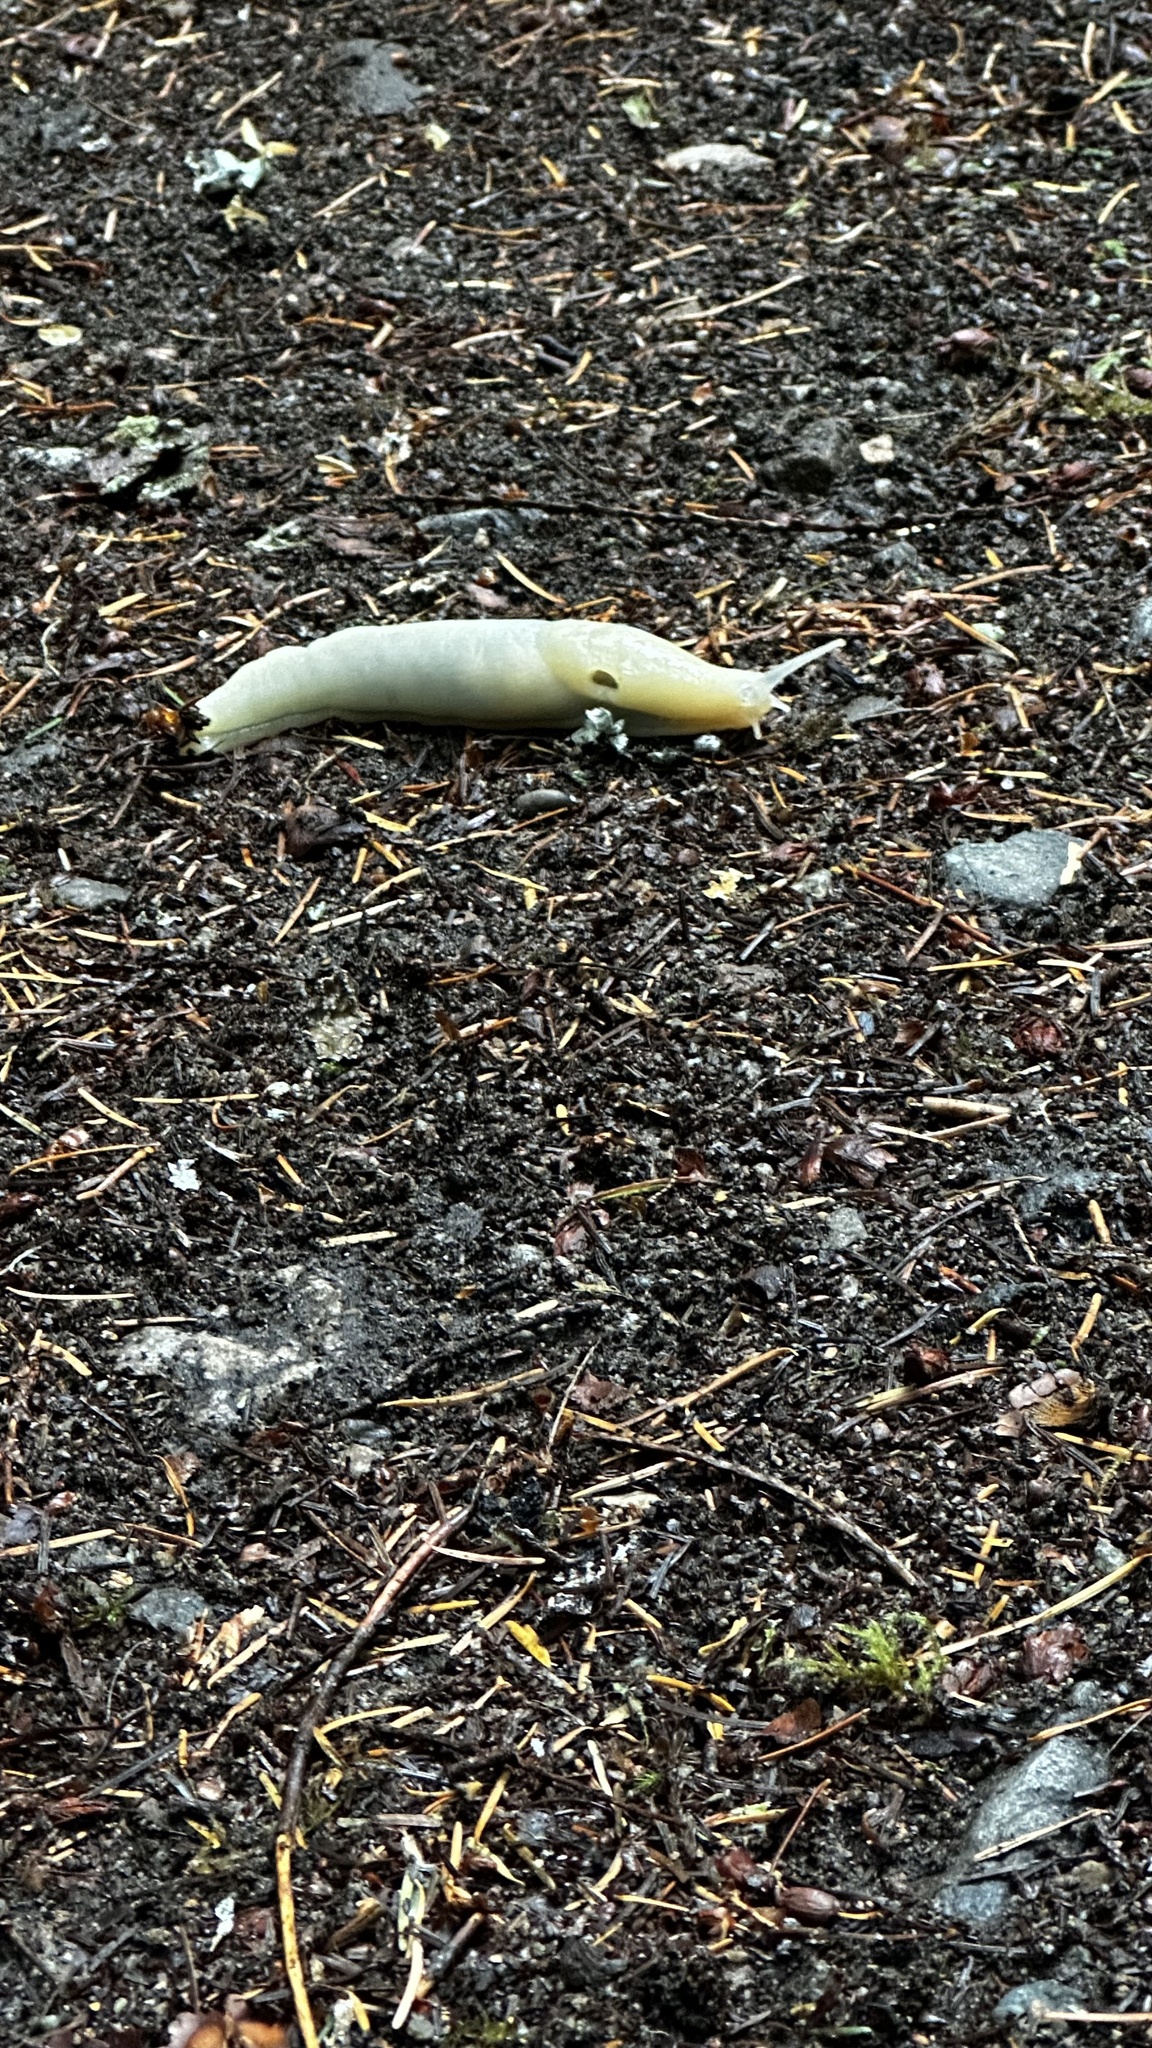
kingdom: Animalia
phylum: Mollusca
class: Gastropoda
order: Stylommatophora
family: Ariolimacidae
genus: Ariolimax
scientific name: Ariolimax columbianus
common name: Pacific banana slug
